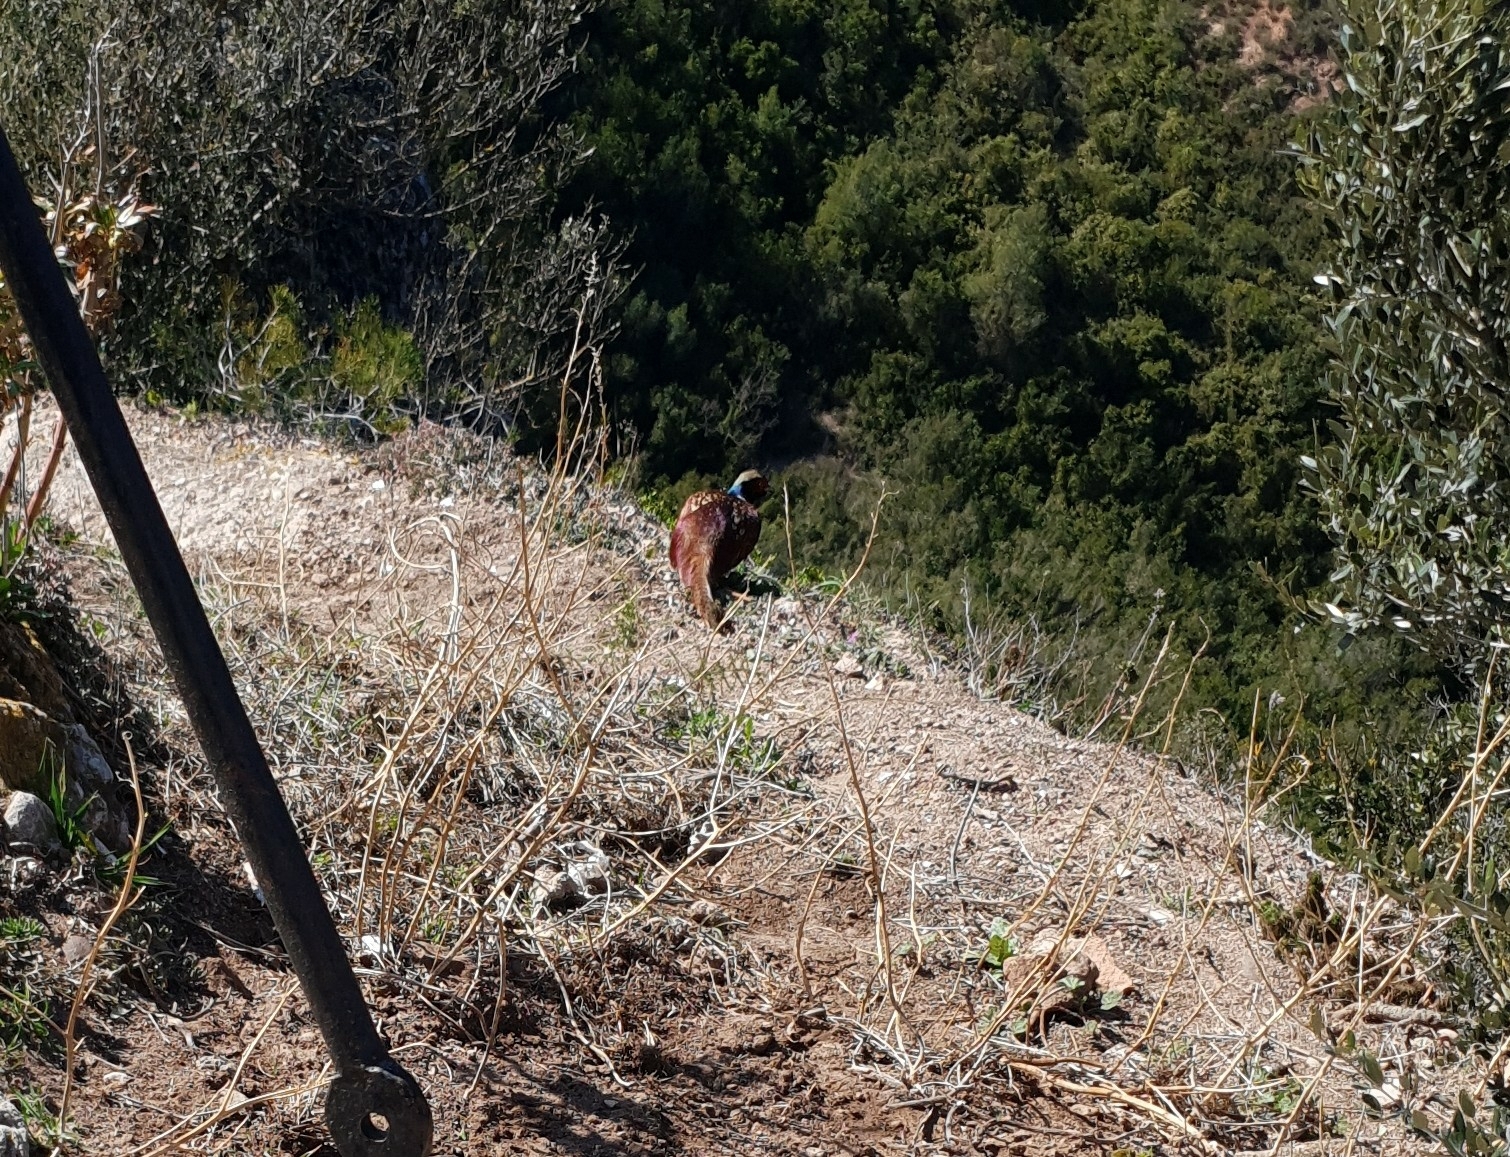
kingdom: Animalia
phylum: Chordata
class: Aves
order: Galliformes
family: Phasianidae
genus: Phasianus
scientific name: Phasianus colchicus
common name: Common pheasant
